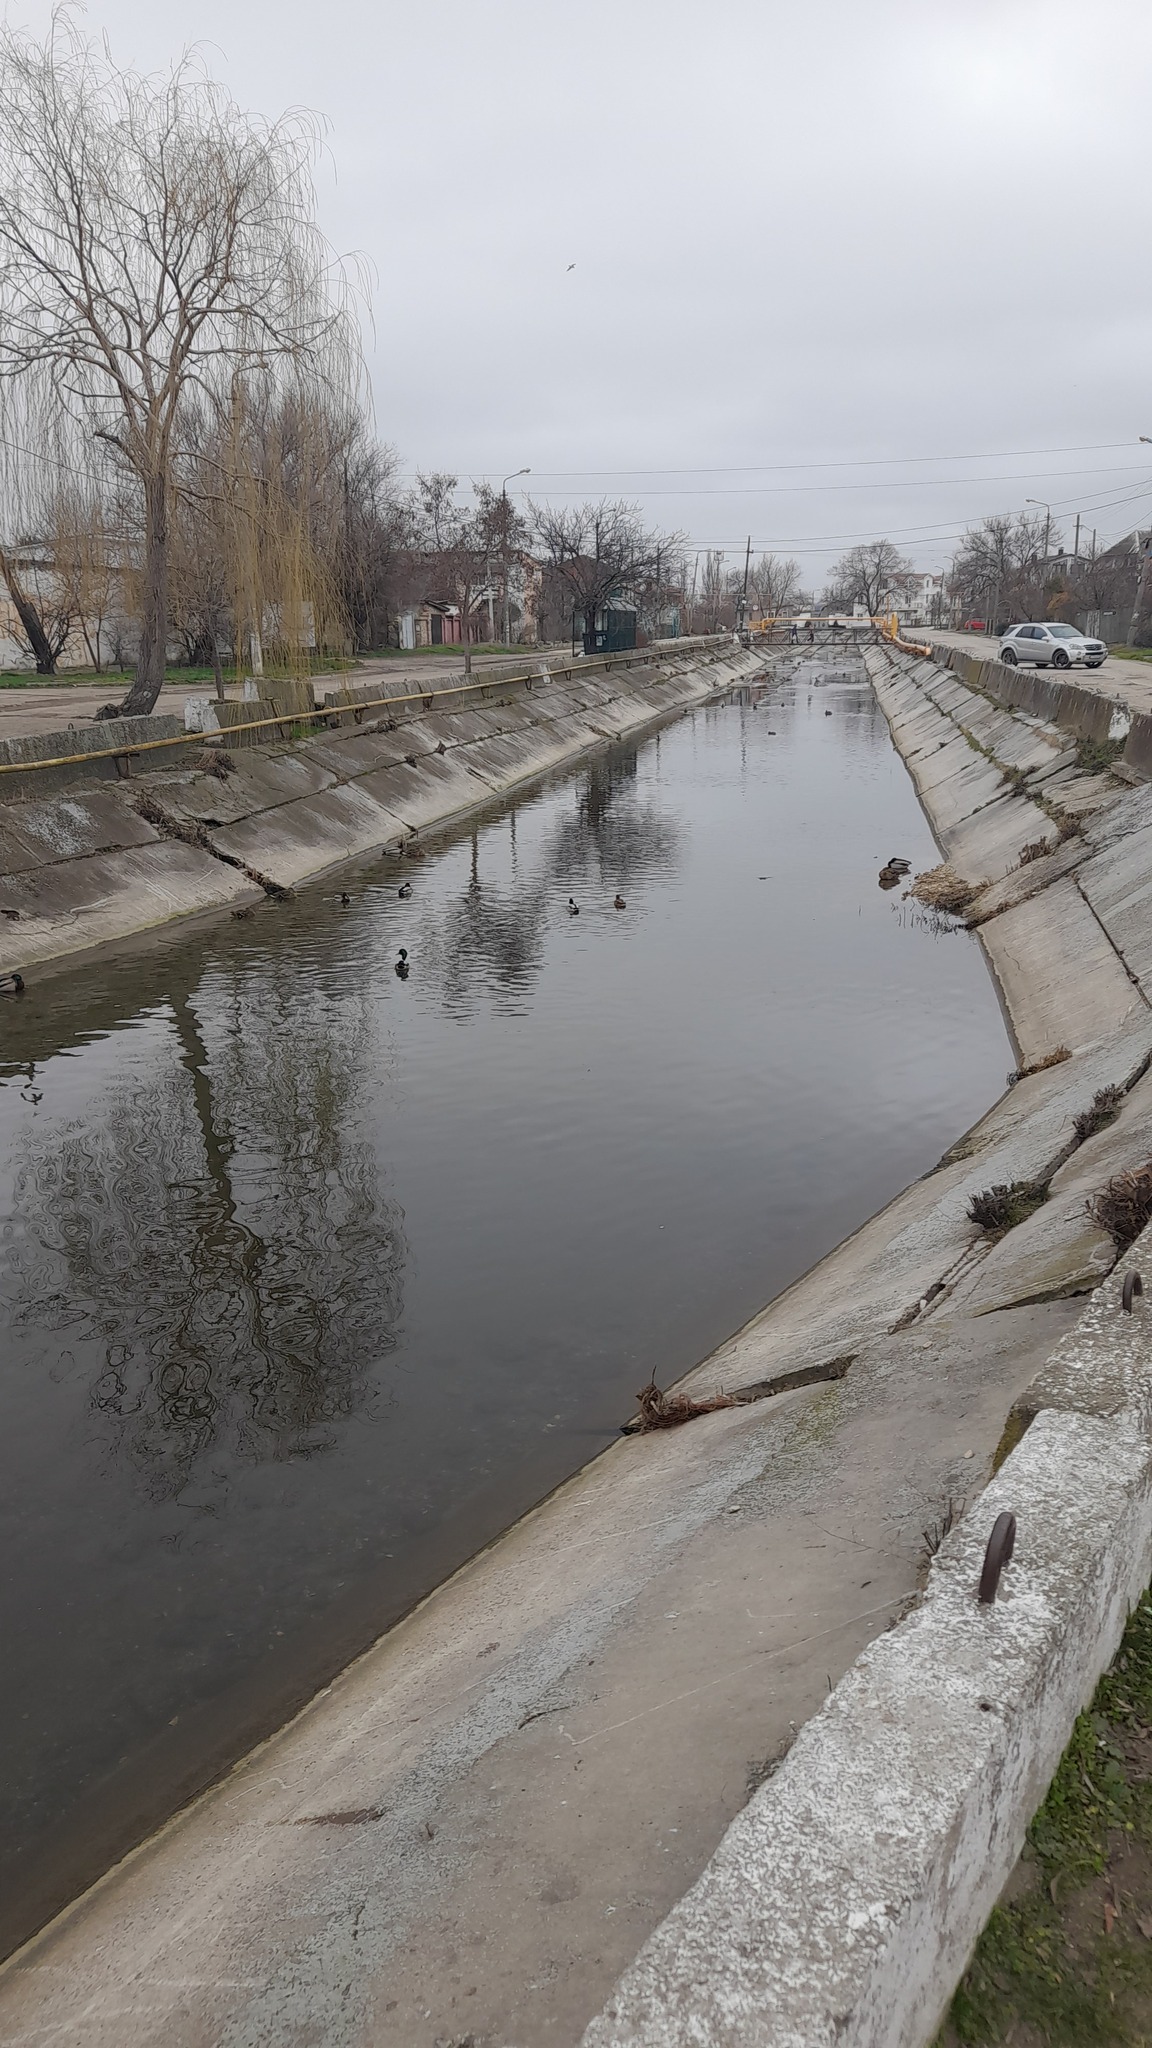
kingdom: Animalia
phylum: Chordata
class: Aves
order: Anseriformes
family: Anatidae
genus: Anas
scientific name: Anas platyrhynchos
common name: Mallard
